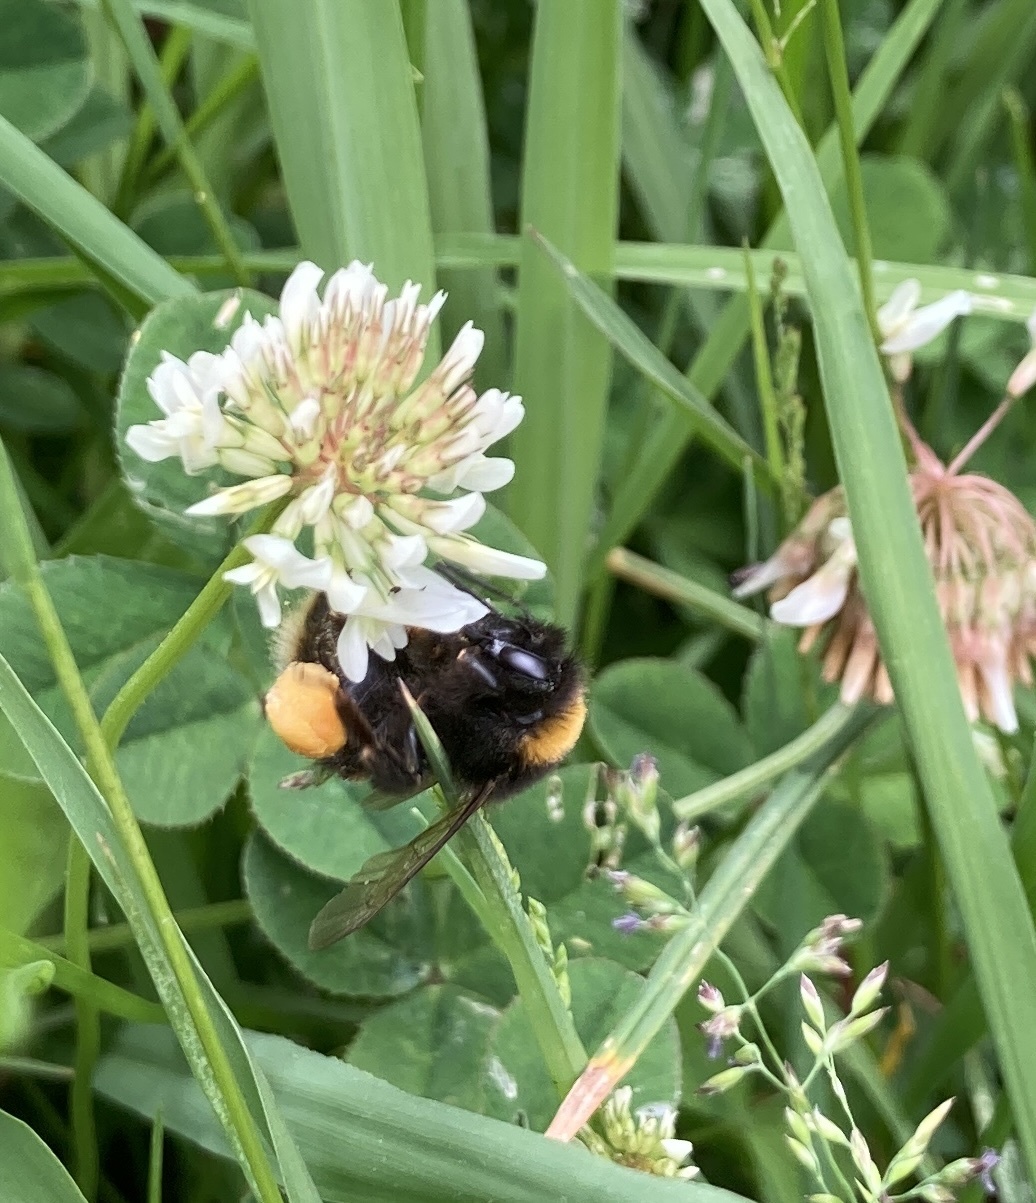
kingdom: Animalia
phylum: Arthropoda
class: Insecta
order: Hymenoptera
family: Apidae
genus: Bombus
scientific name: Bombus terrestris
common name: Buff-tailed bumblebee
